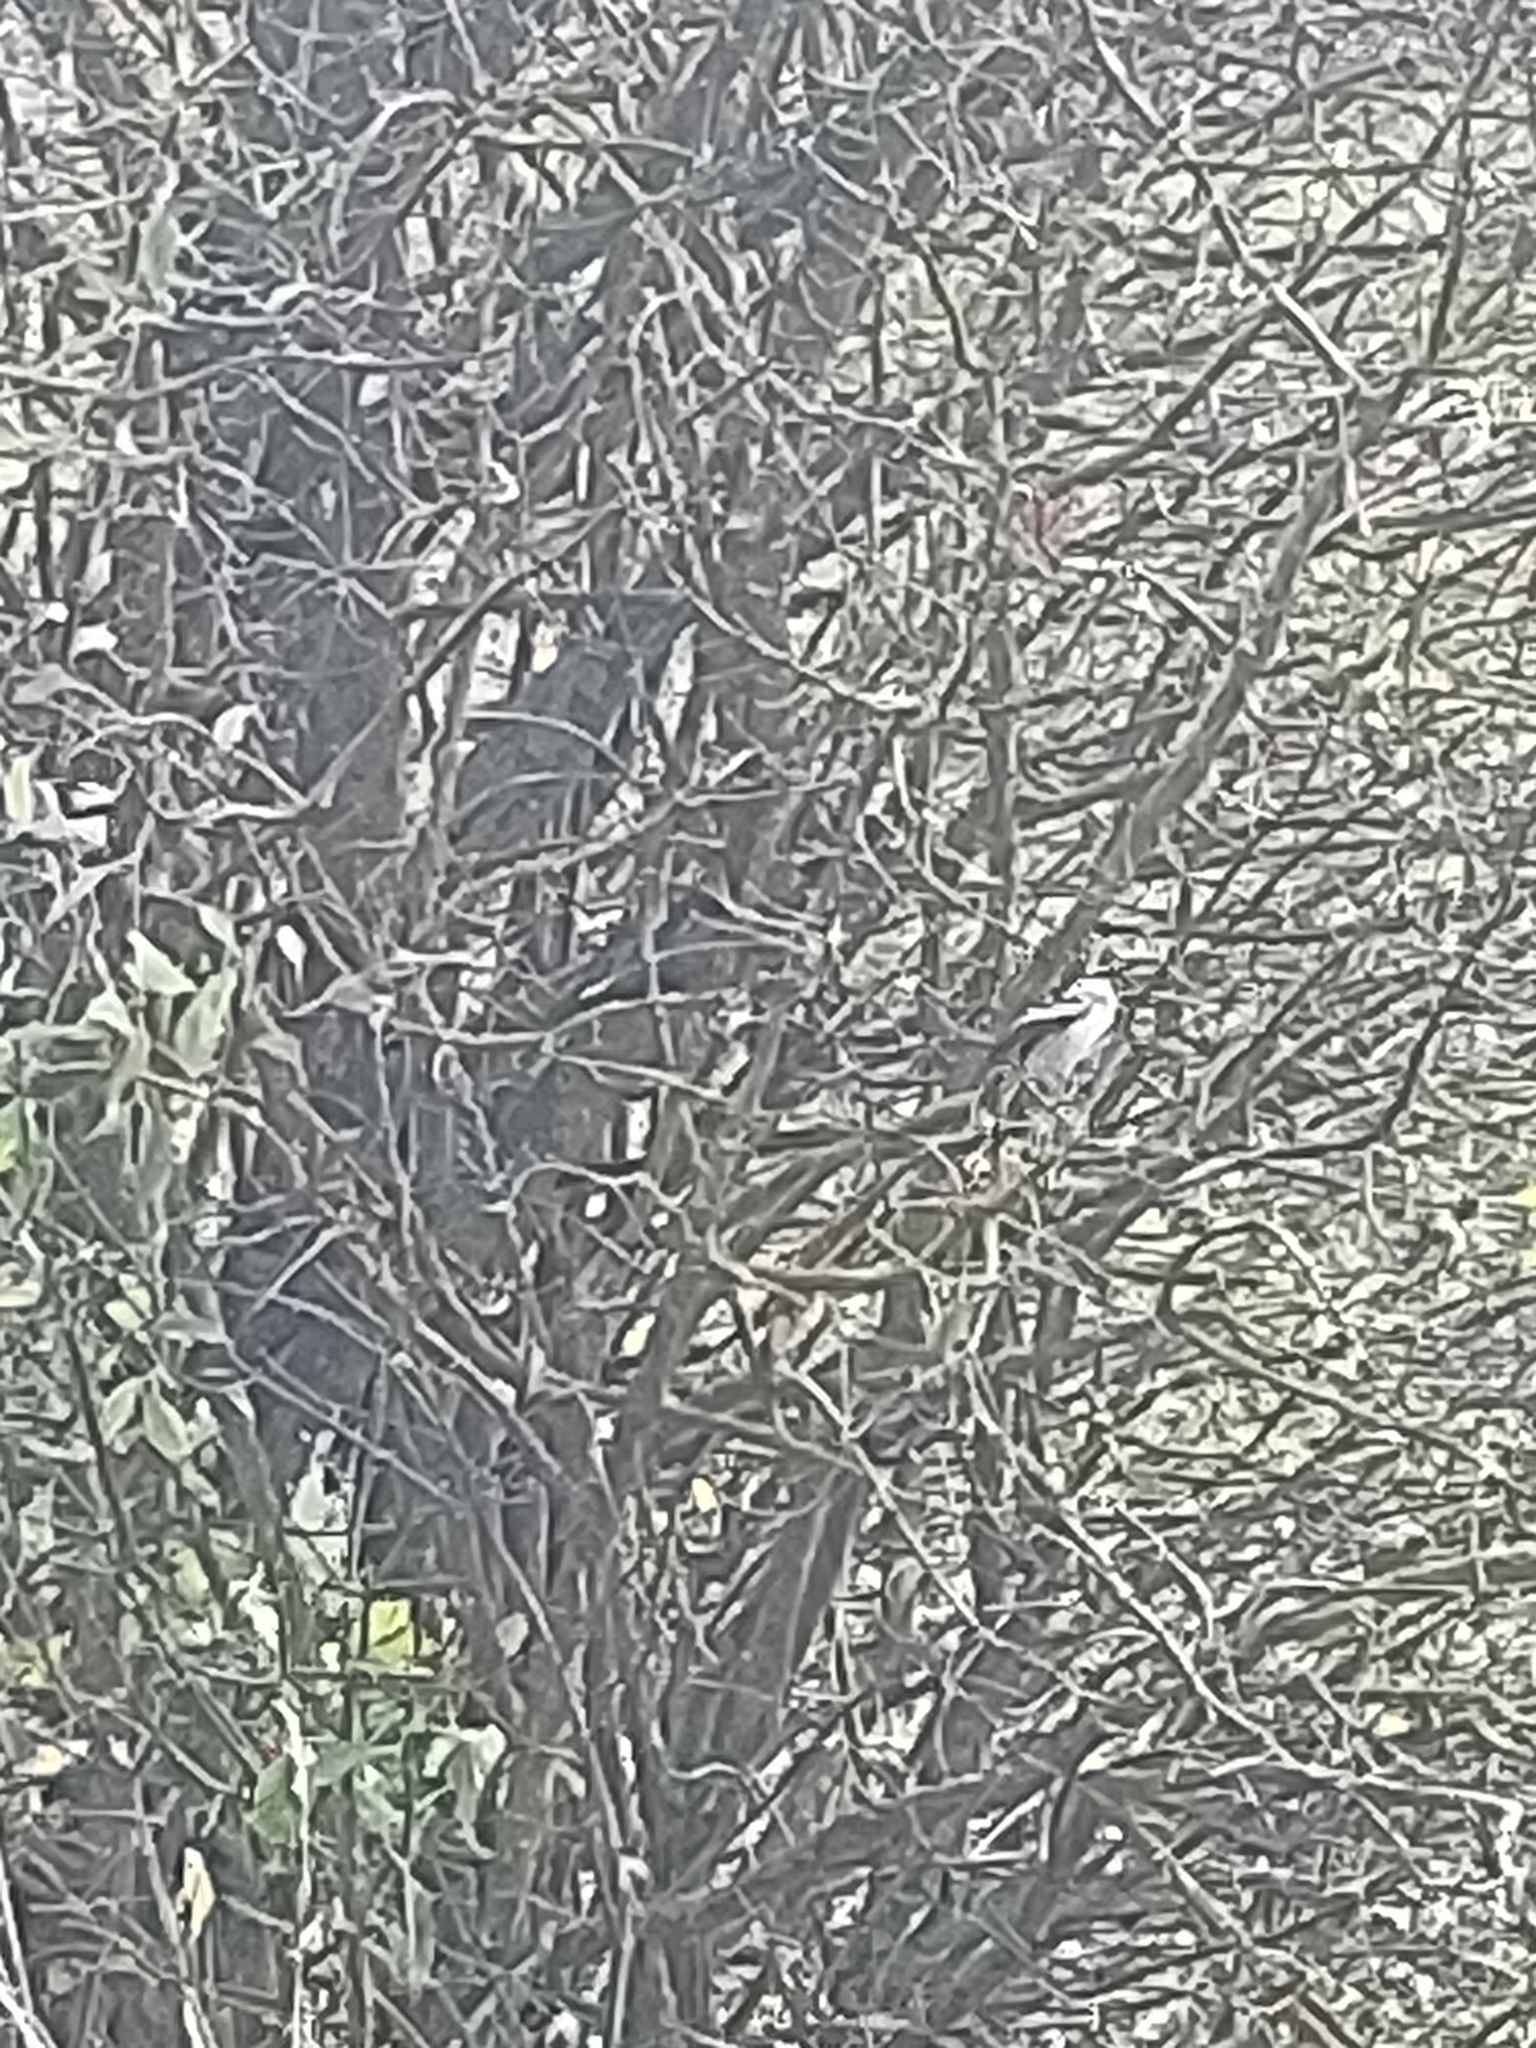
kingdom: Animalia
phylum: Chordata
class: Aves
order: Passeriformes
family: Aegithalidae
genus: Aegithalos
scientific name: Aegithalos caudatus
